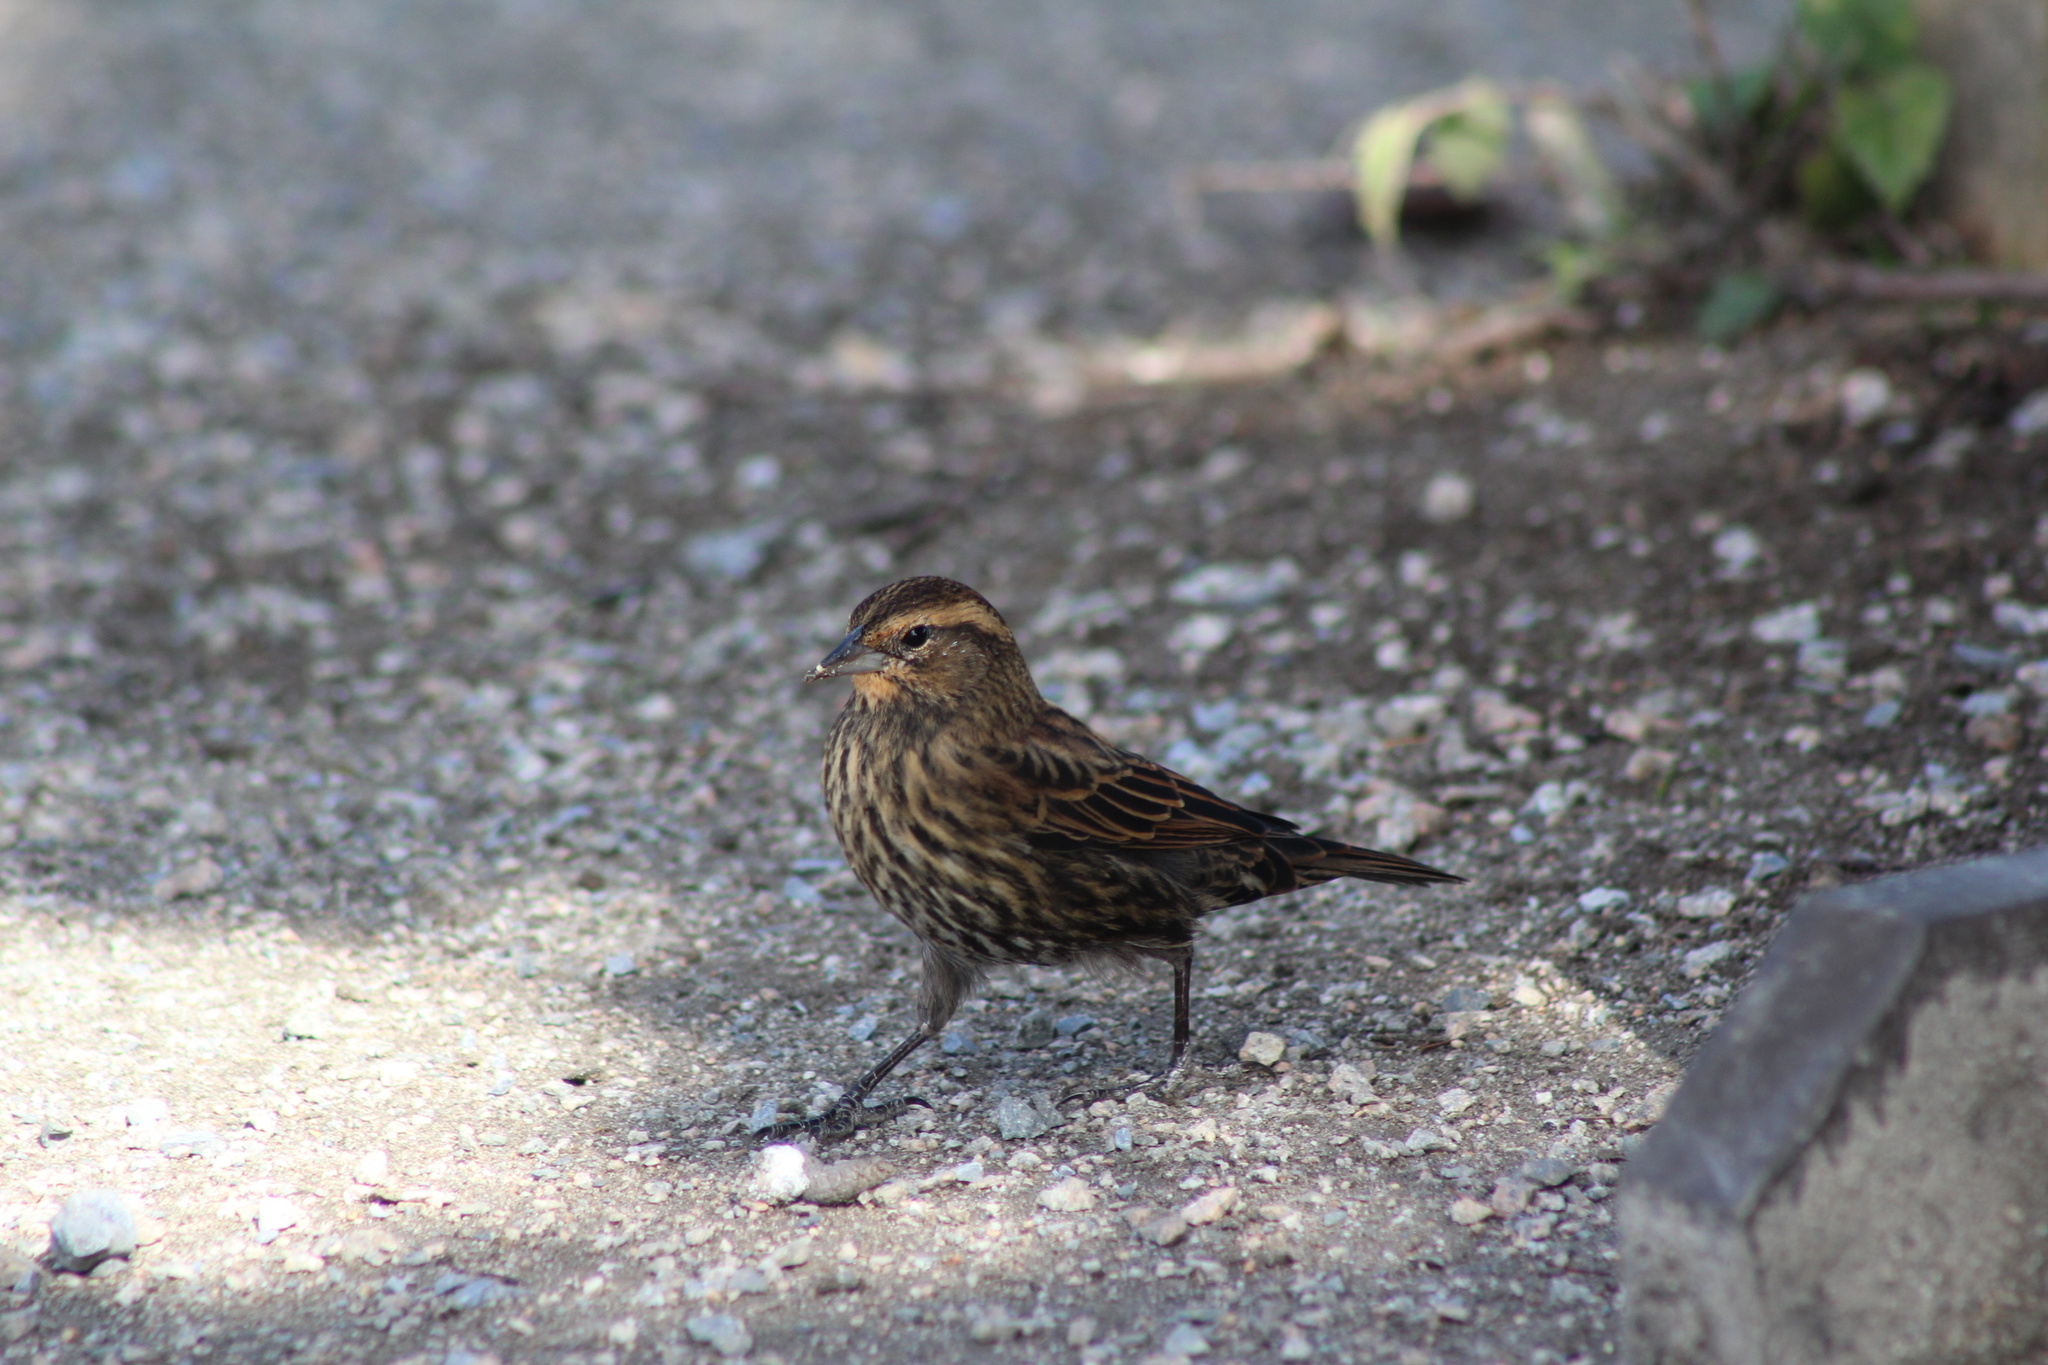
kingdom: Animalia
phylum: Chordata
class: Aves
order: Passeriformes
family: Icteridae
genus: Agelaius
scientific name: Agelaius phoeniceus
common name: Red-winged blackbird
